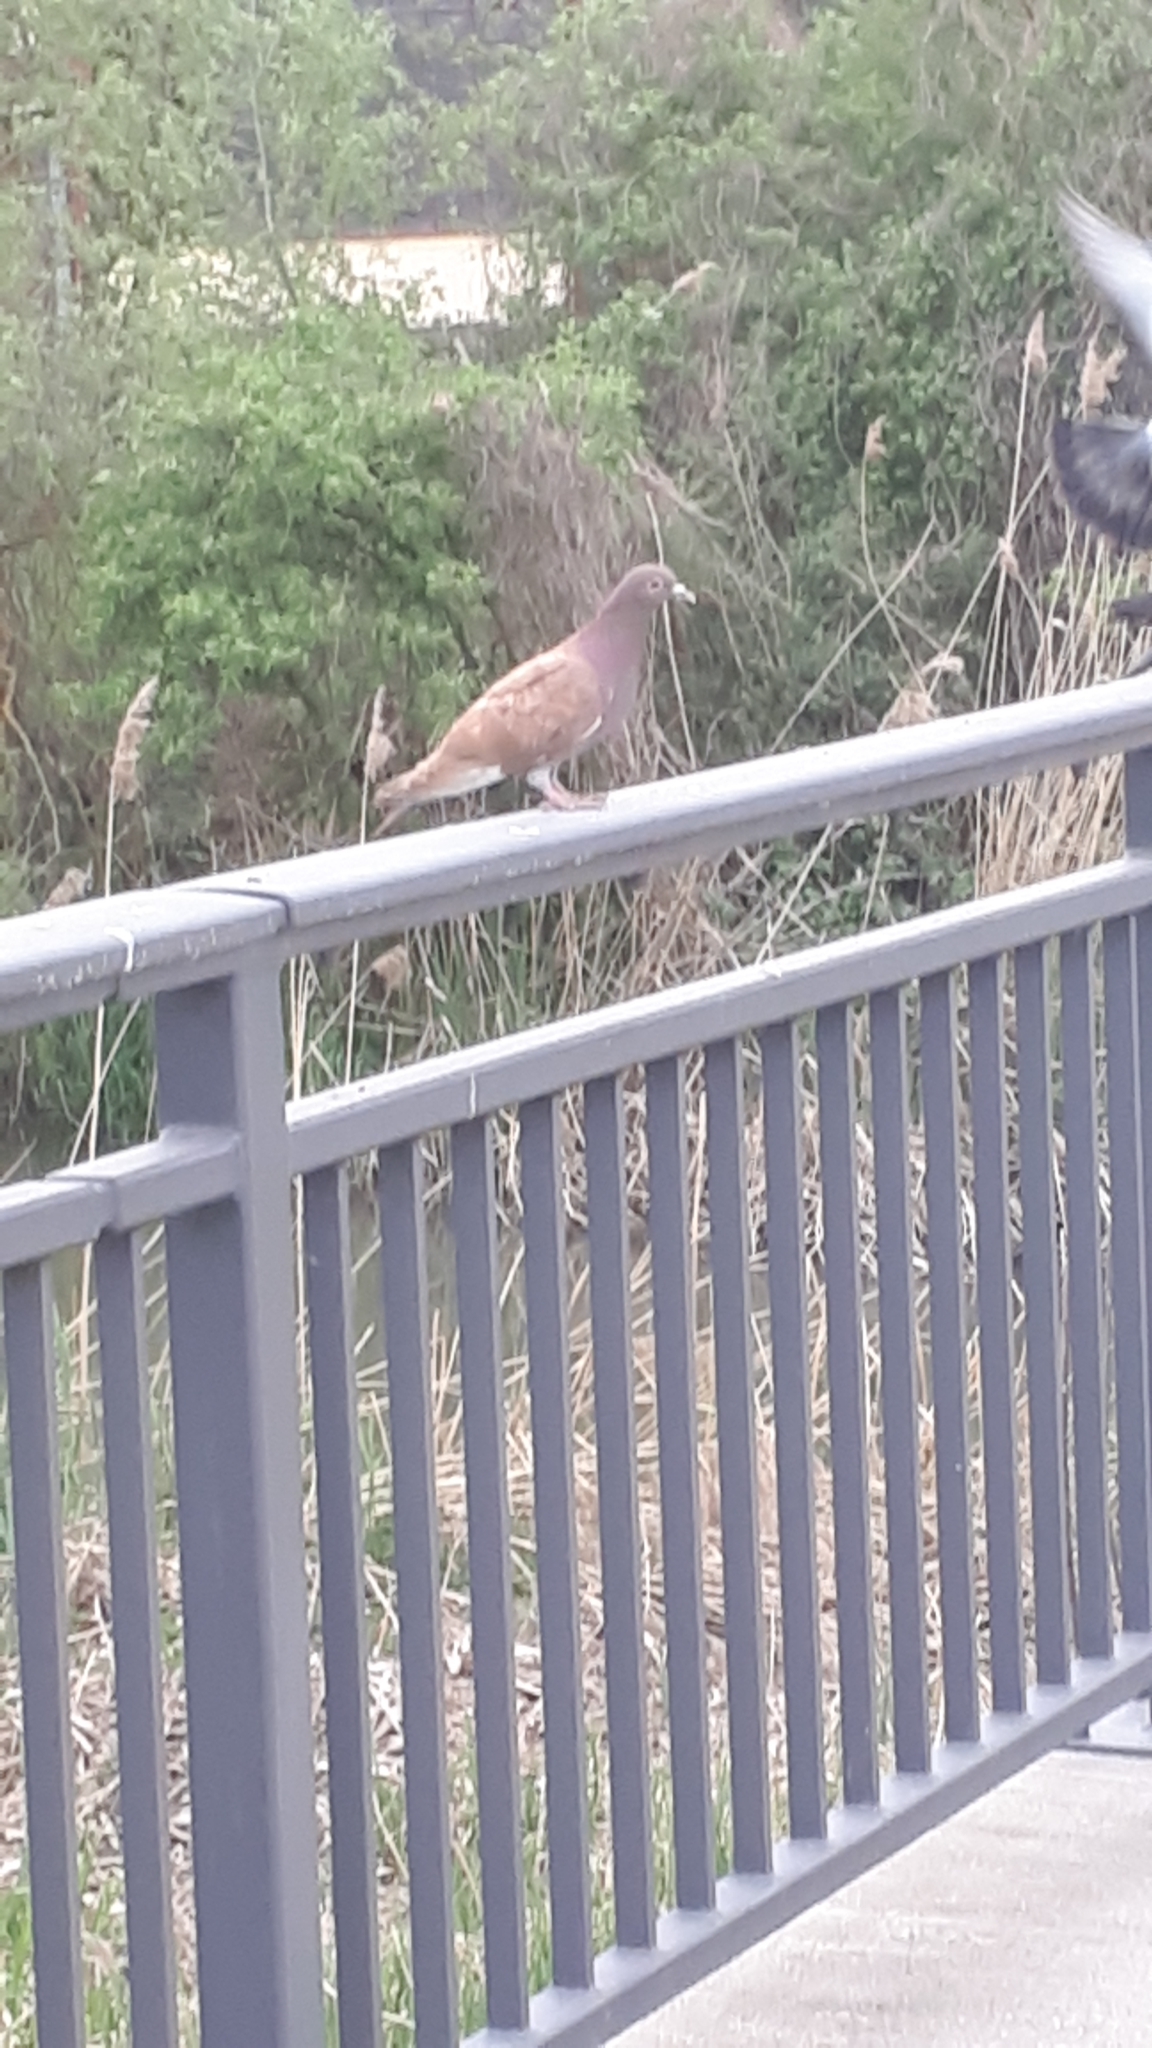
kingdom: Animalia
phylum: Chordata
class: Aves
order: Columbiformes
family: Columbidae
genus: Columba
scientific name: Columba livia
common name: Rock pigeon
